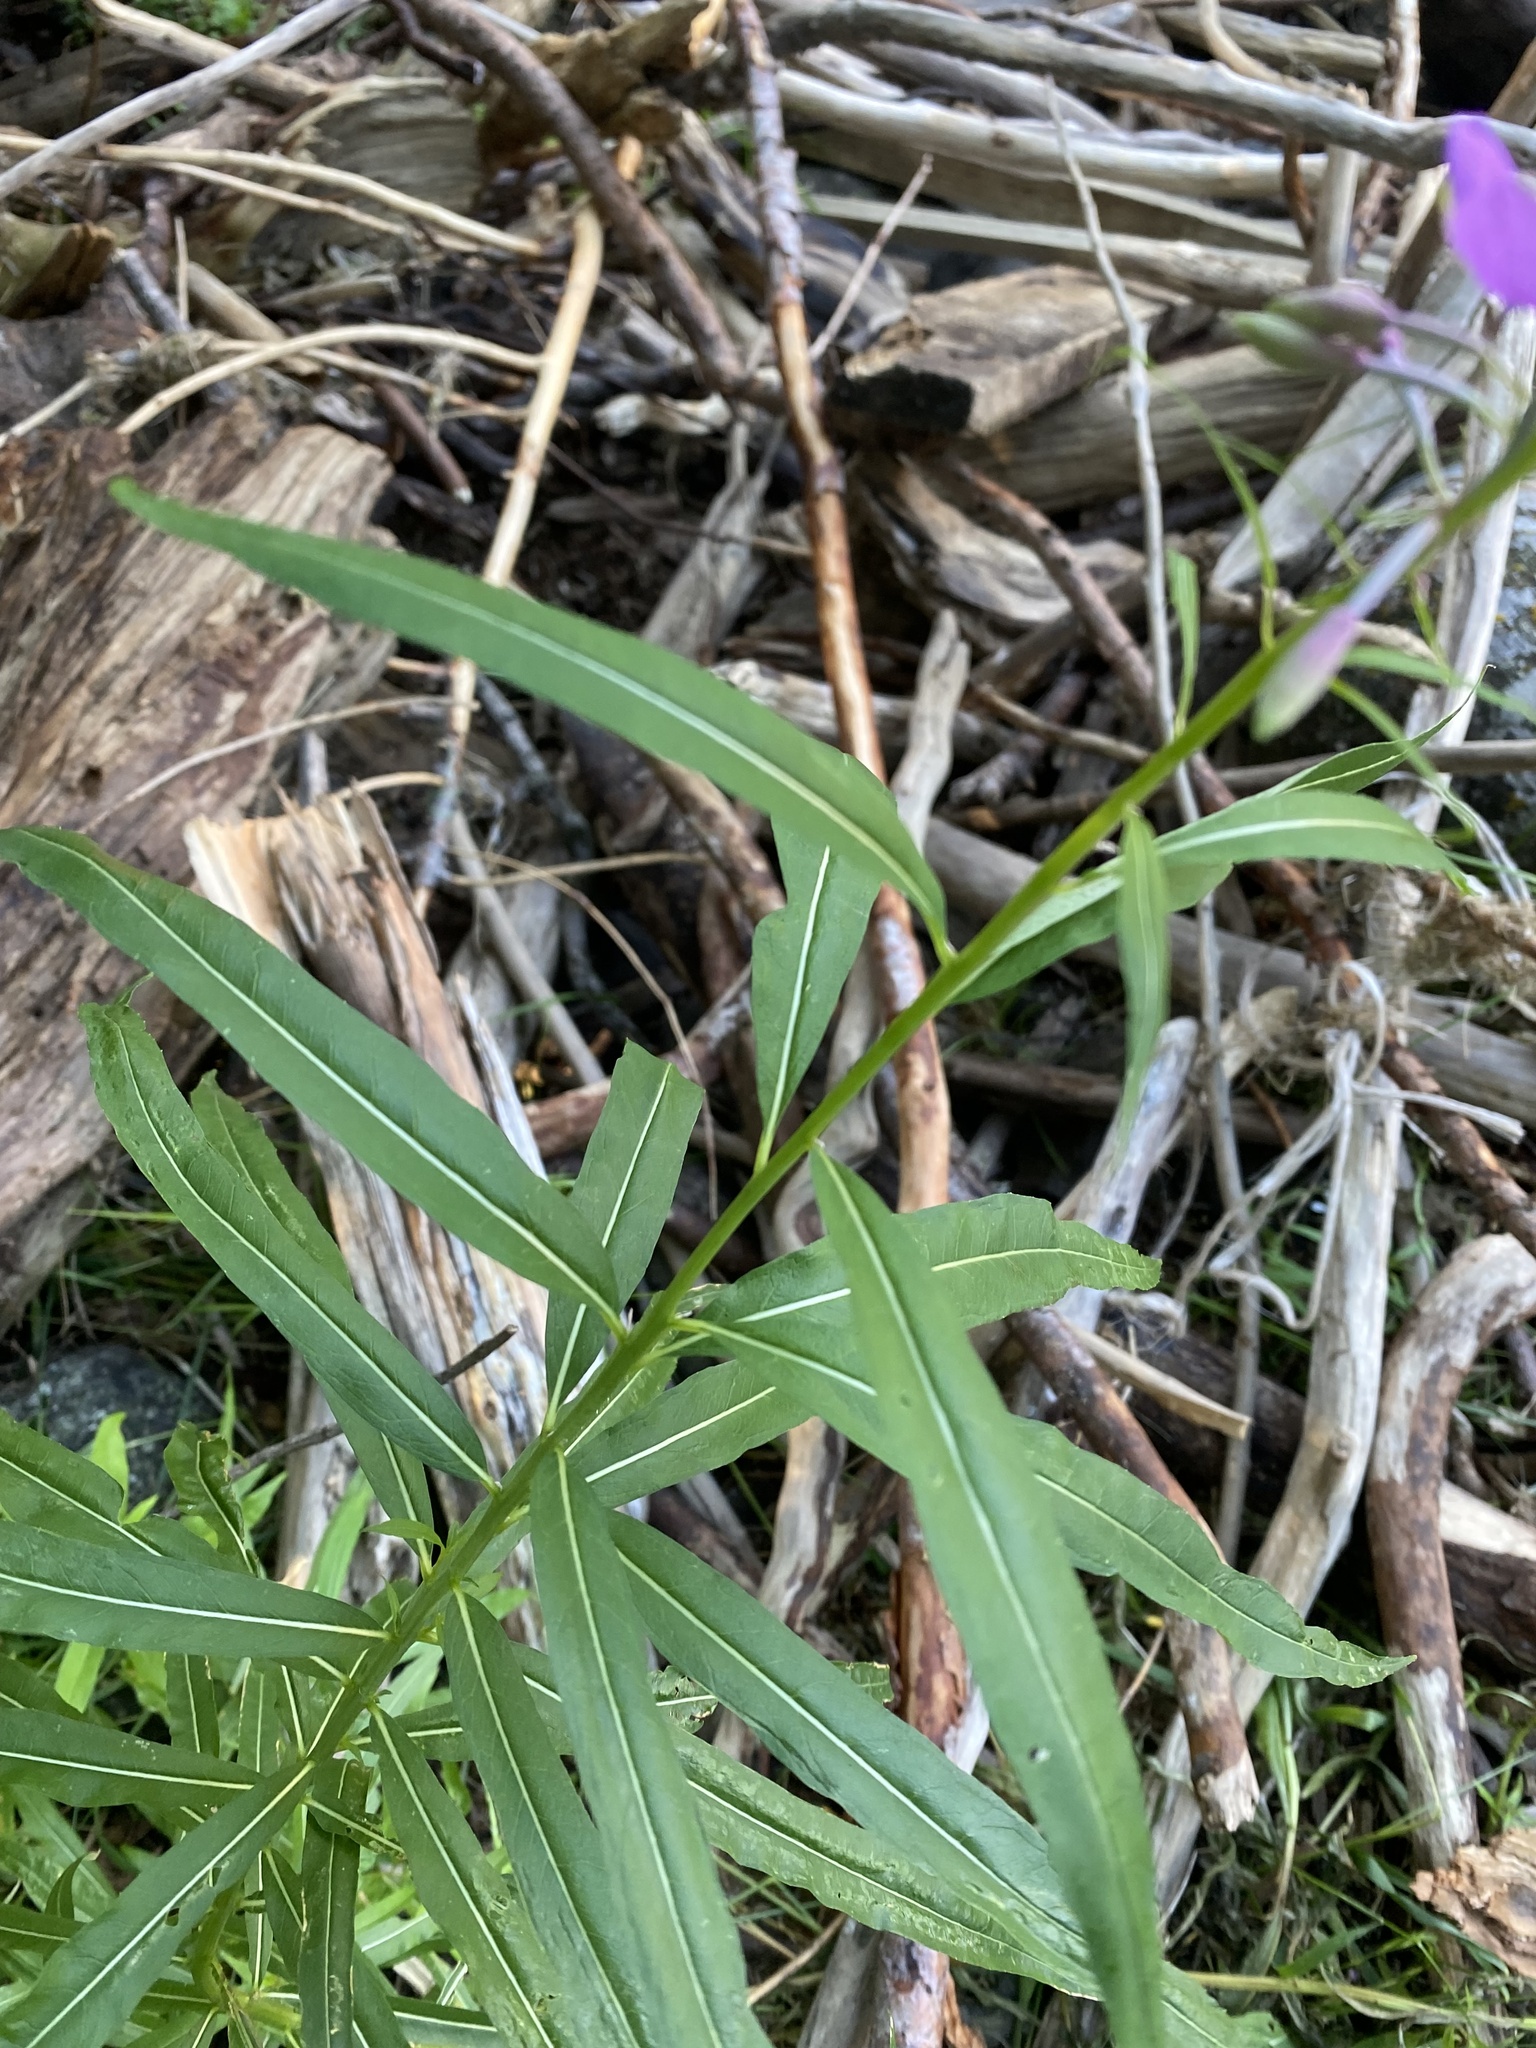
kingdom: Plantae
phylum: Tracheophyta
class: Magnoliopsida
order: Myrtales
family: Onagraceae
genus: Chamaenerion
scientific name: Chamaenerion angustifolium
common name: Fireweed
